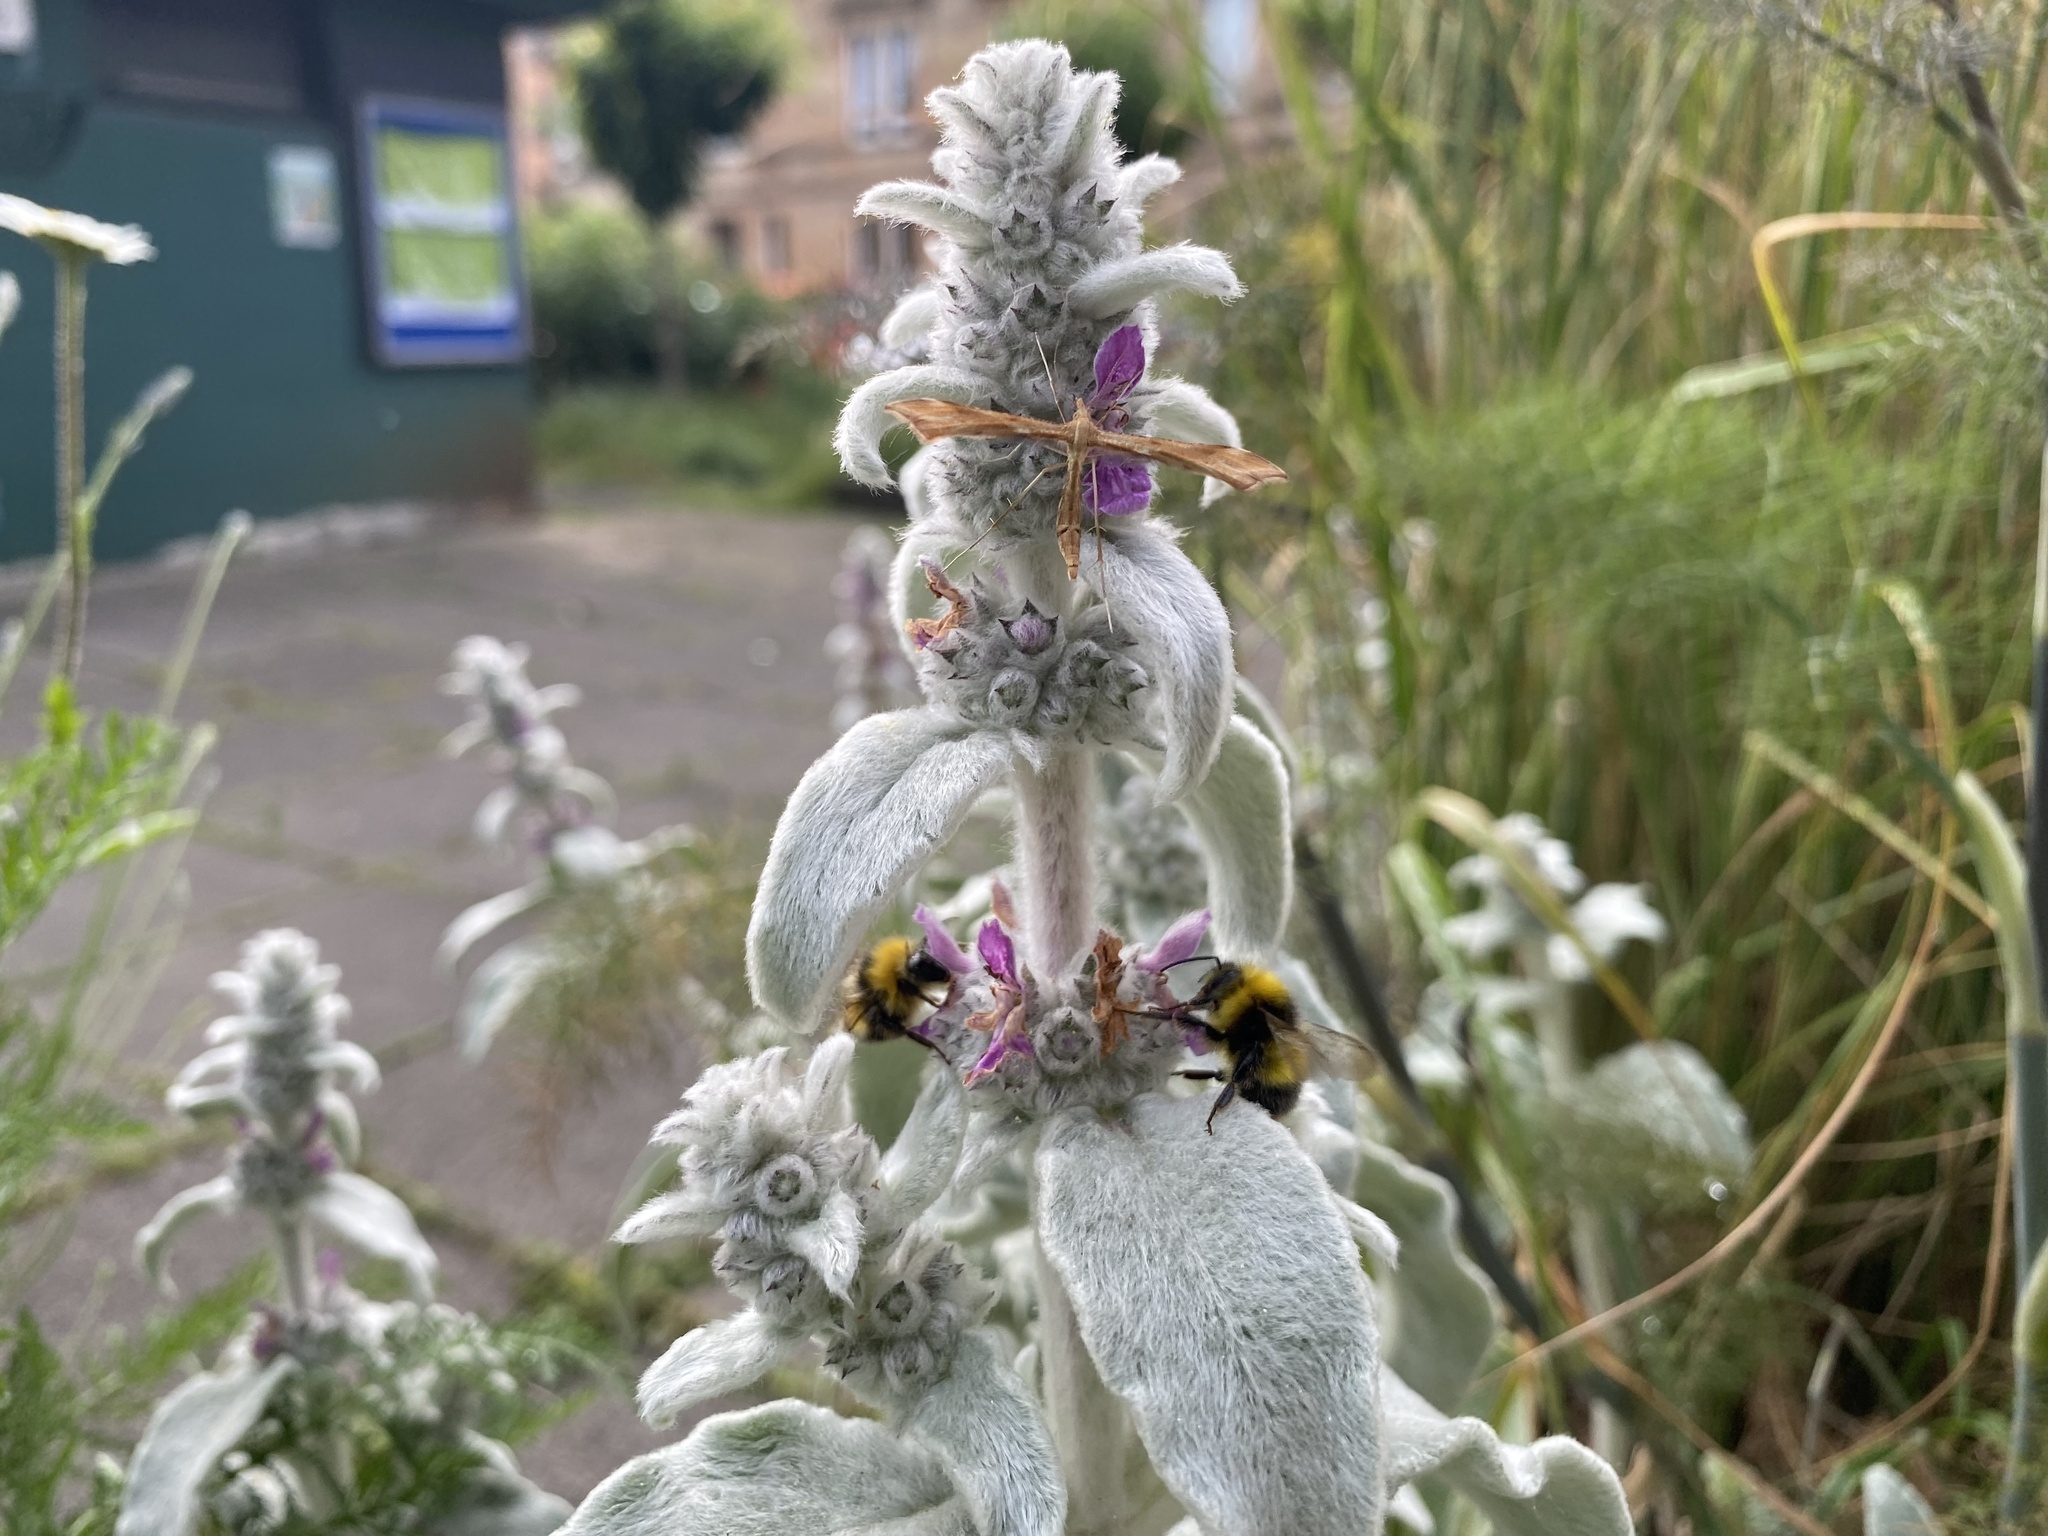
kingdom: Animalia
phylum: Arthropoda
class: Insecta
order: Lepidoptera
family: Pterophoridae
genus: Gillmeria
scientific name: Gillmeria pallidactyla
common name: Yarrow plume
